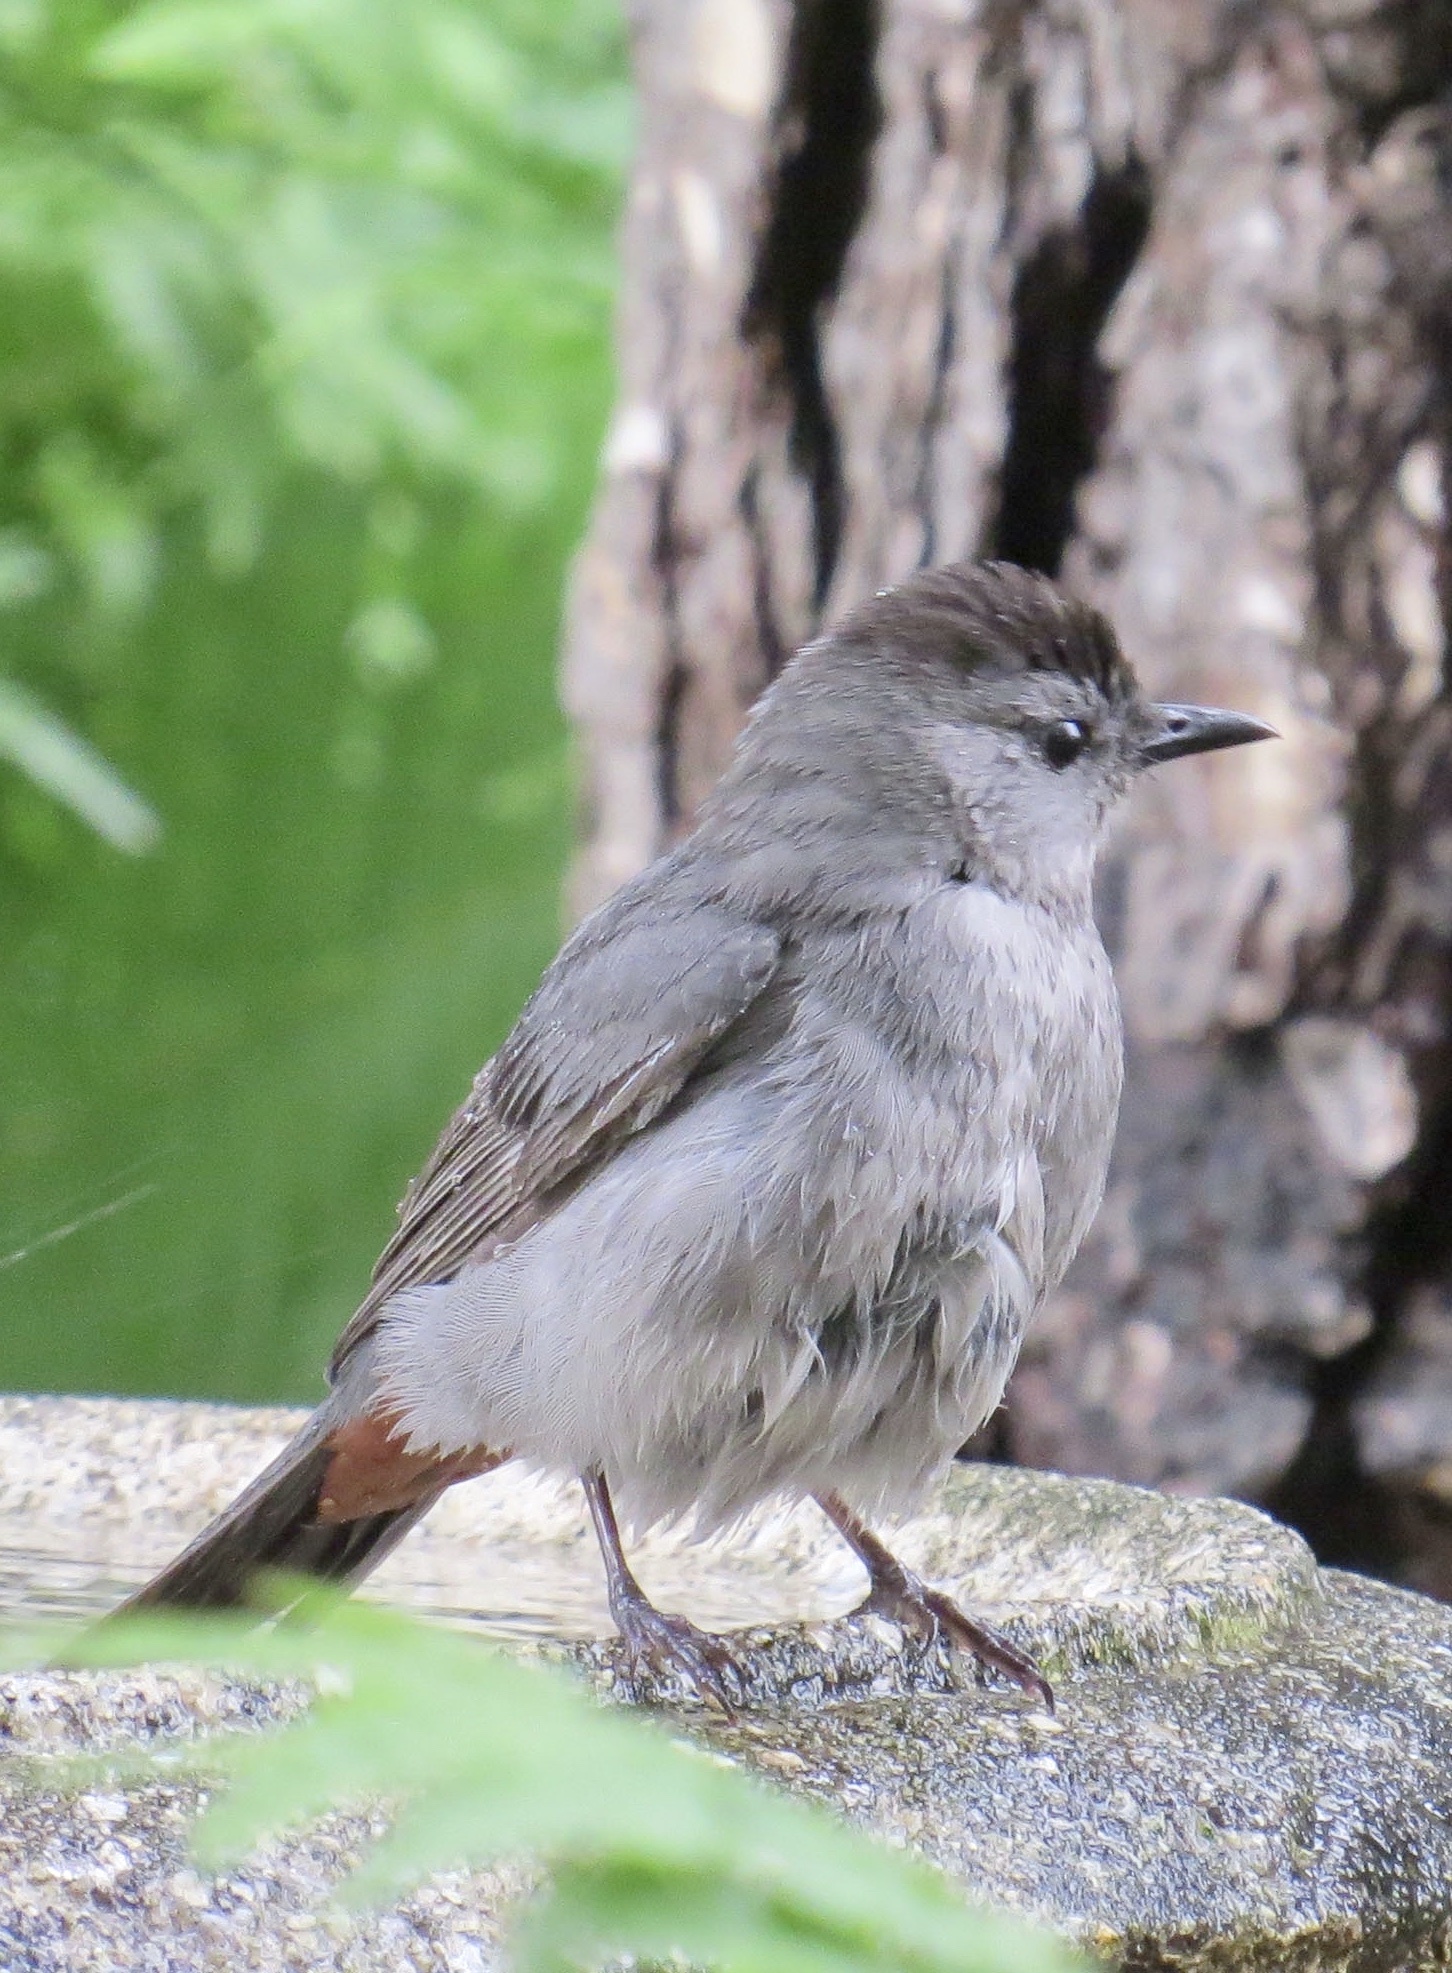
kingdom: Animalia
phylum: Chordata
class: Aves
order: Passeriformes
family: Mimidae
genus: Dumetella
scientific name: Dumetella carolinensis
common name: Gray catbird
